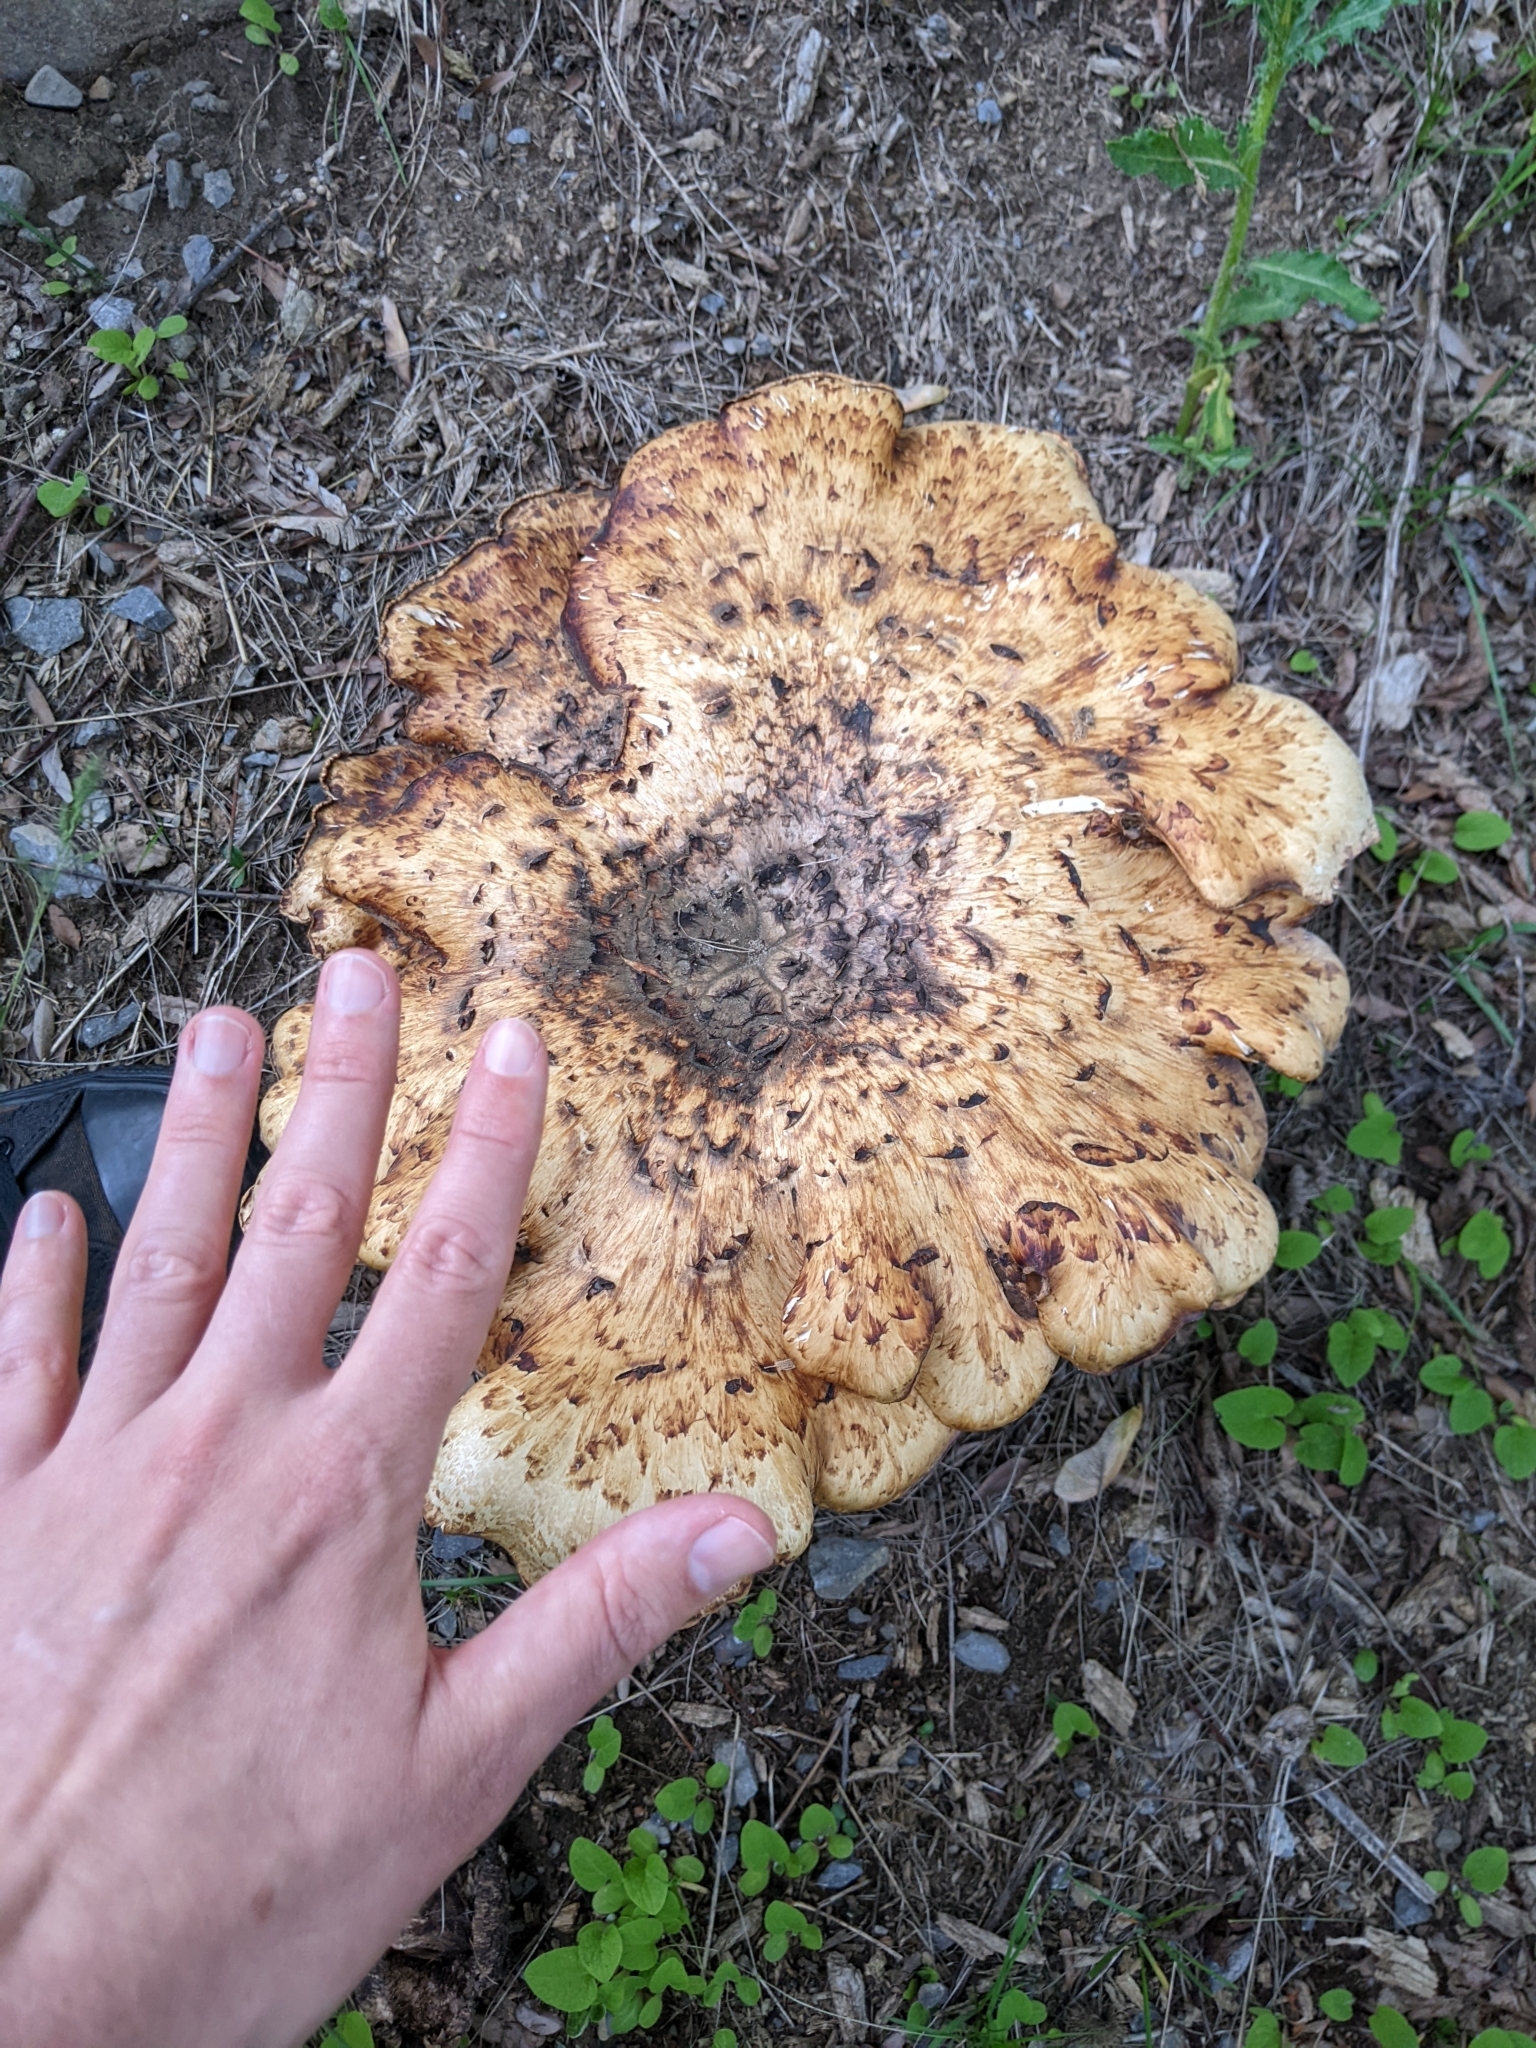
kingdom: Fungi
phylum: Basidiomycota
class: Agaricomycetes
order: Polyporales
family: Polyporaceae
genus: Cerioporus
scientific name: Cerioporus squamosus
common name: Dryad's saddle
